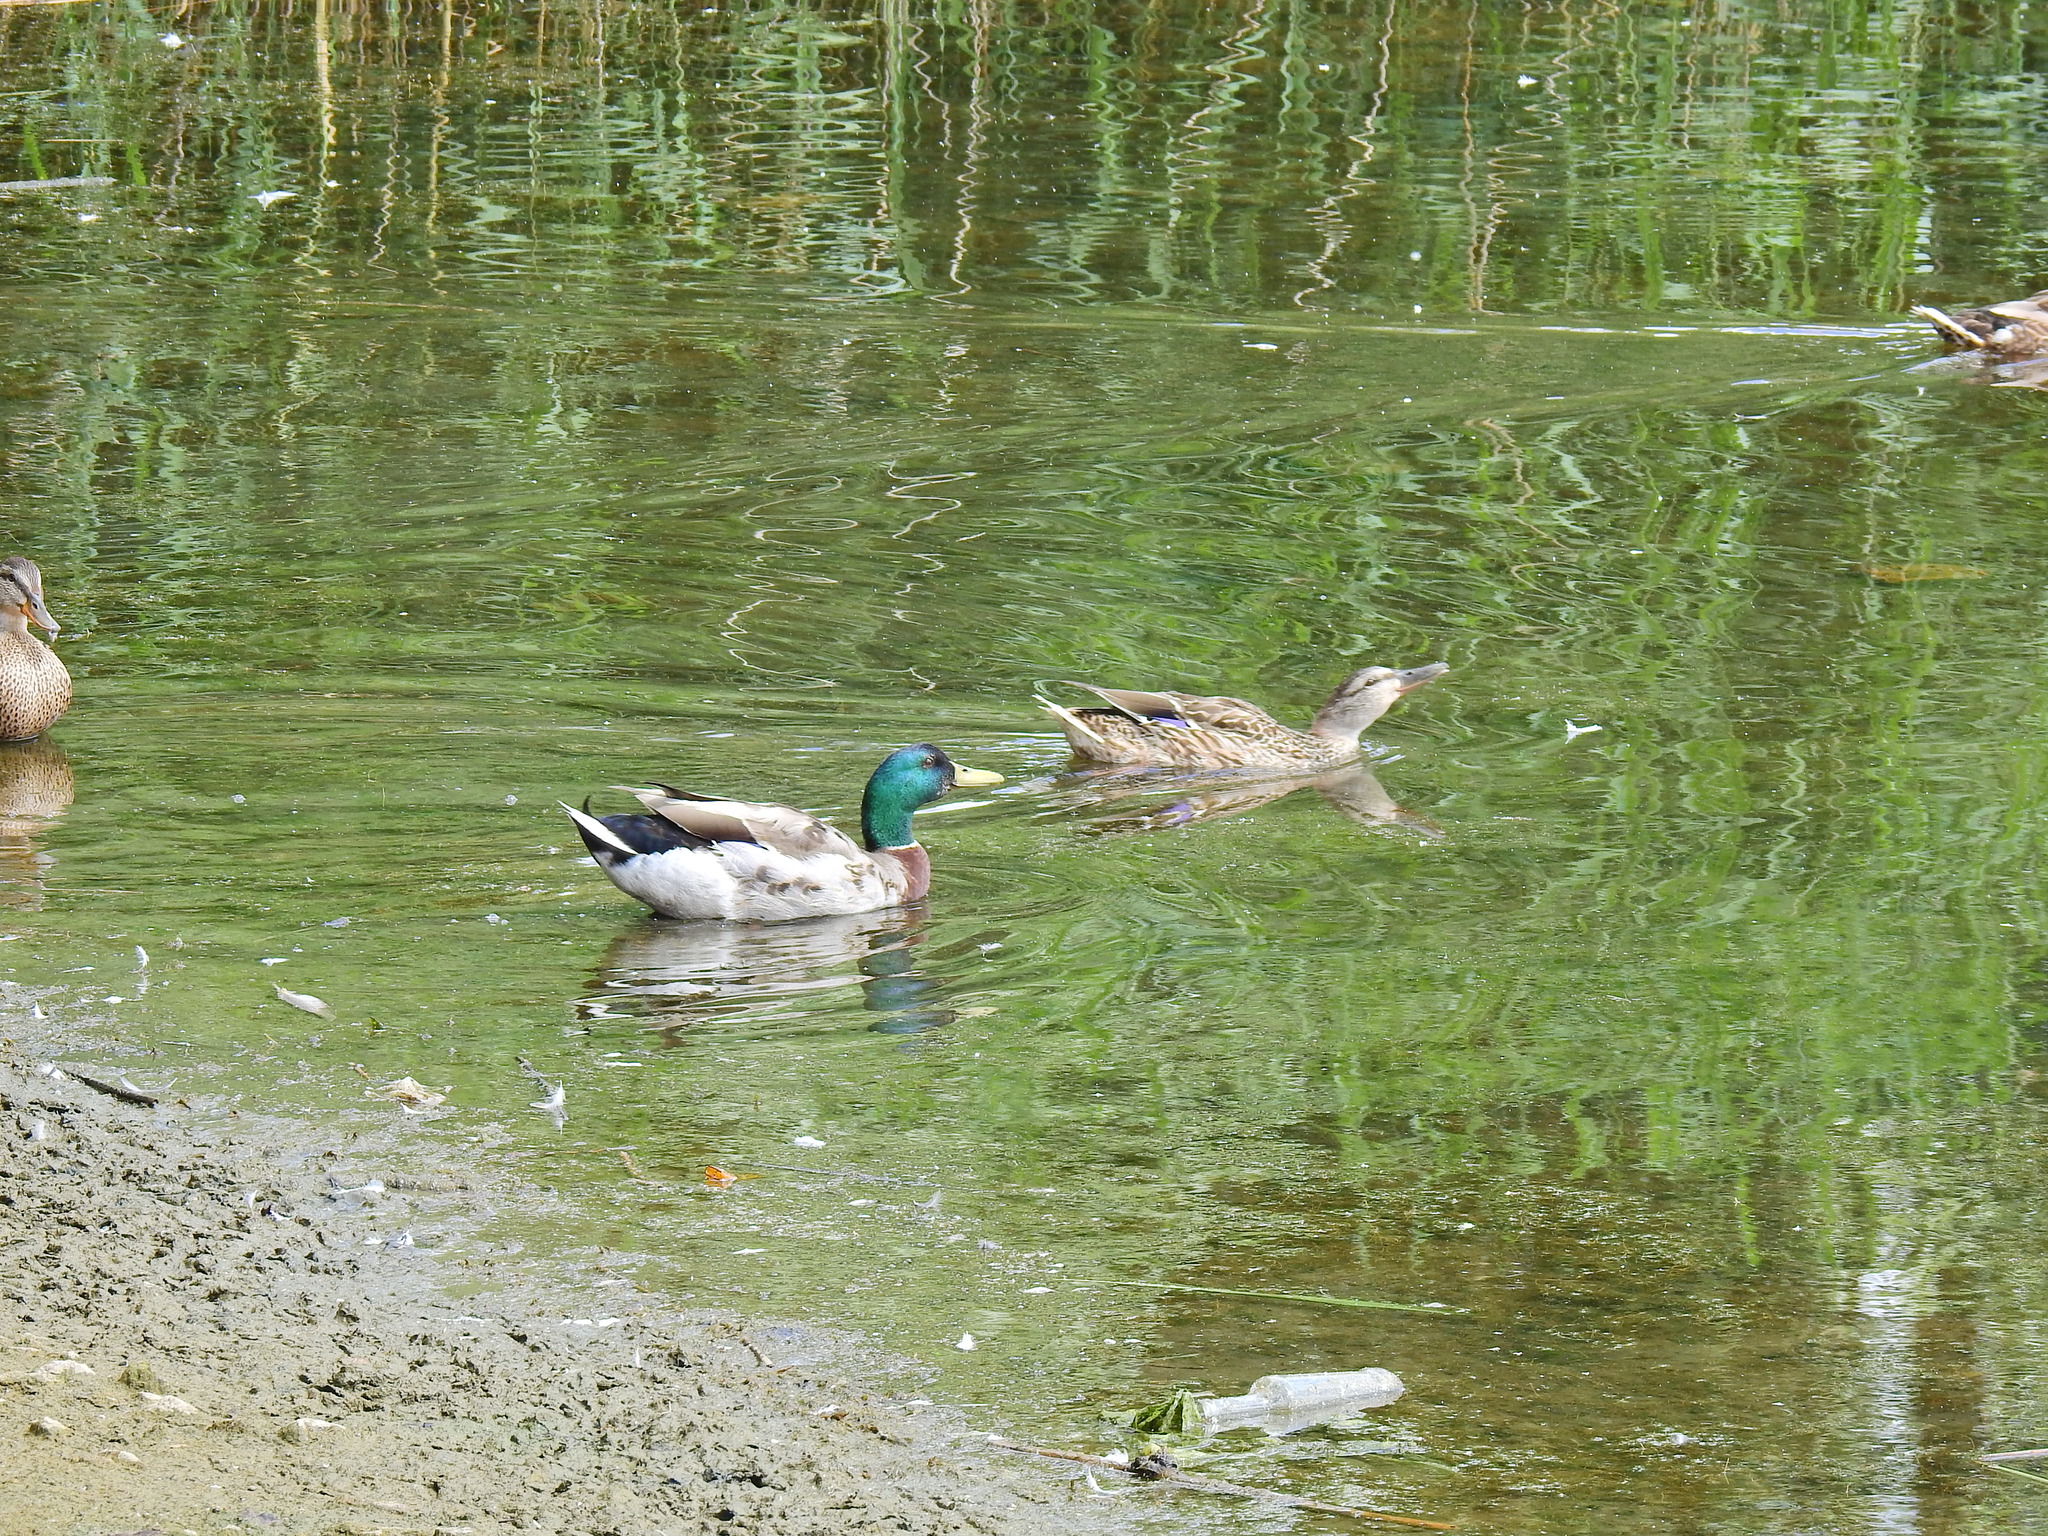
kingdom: Animalia
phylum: Chordata
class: Aves
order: Anseriformes
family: Anatidae
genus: Anas
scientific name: Anas platyrhynchos
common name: Mallard
